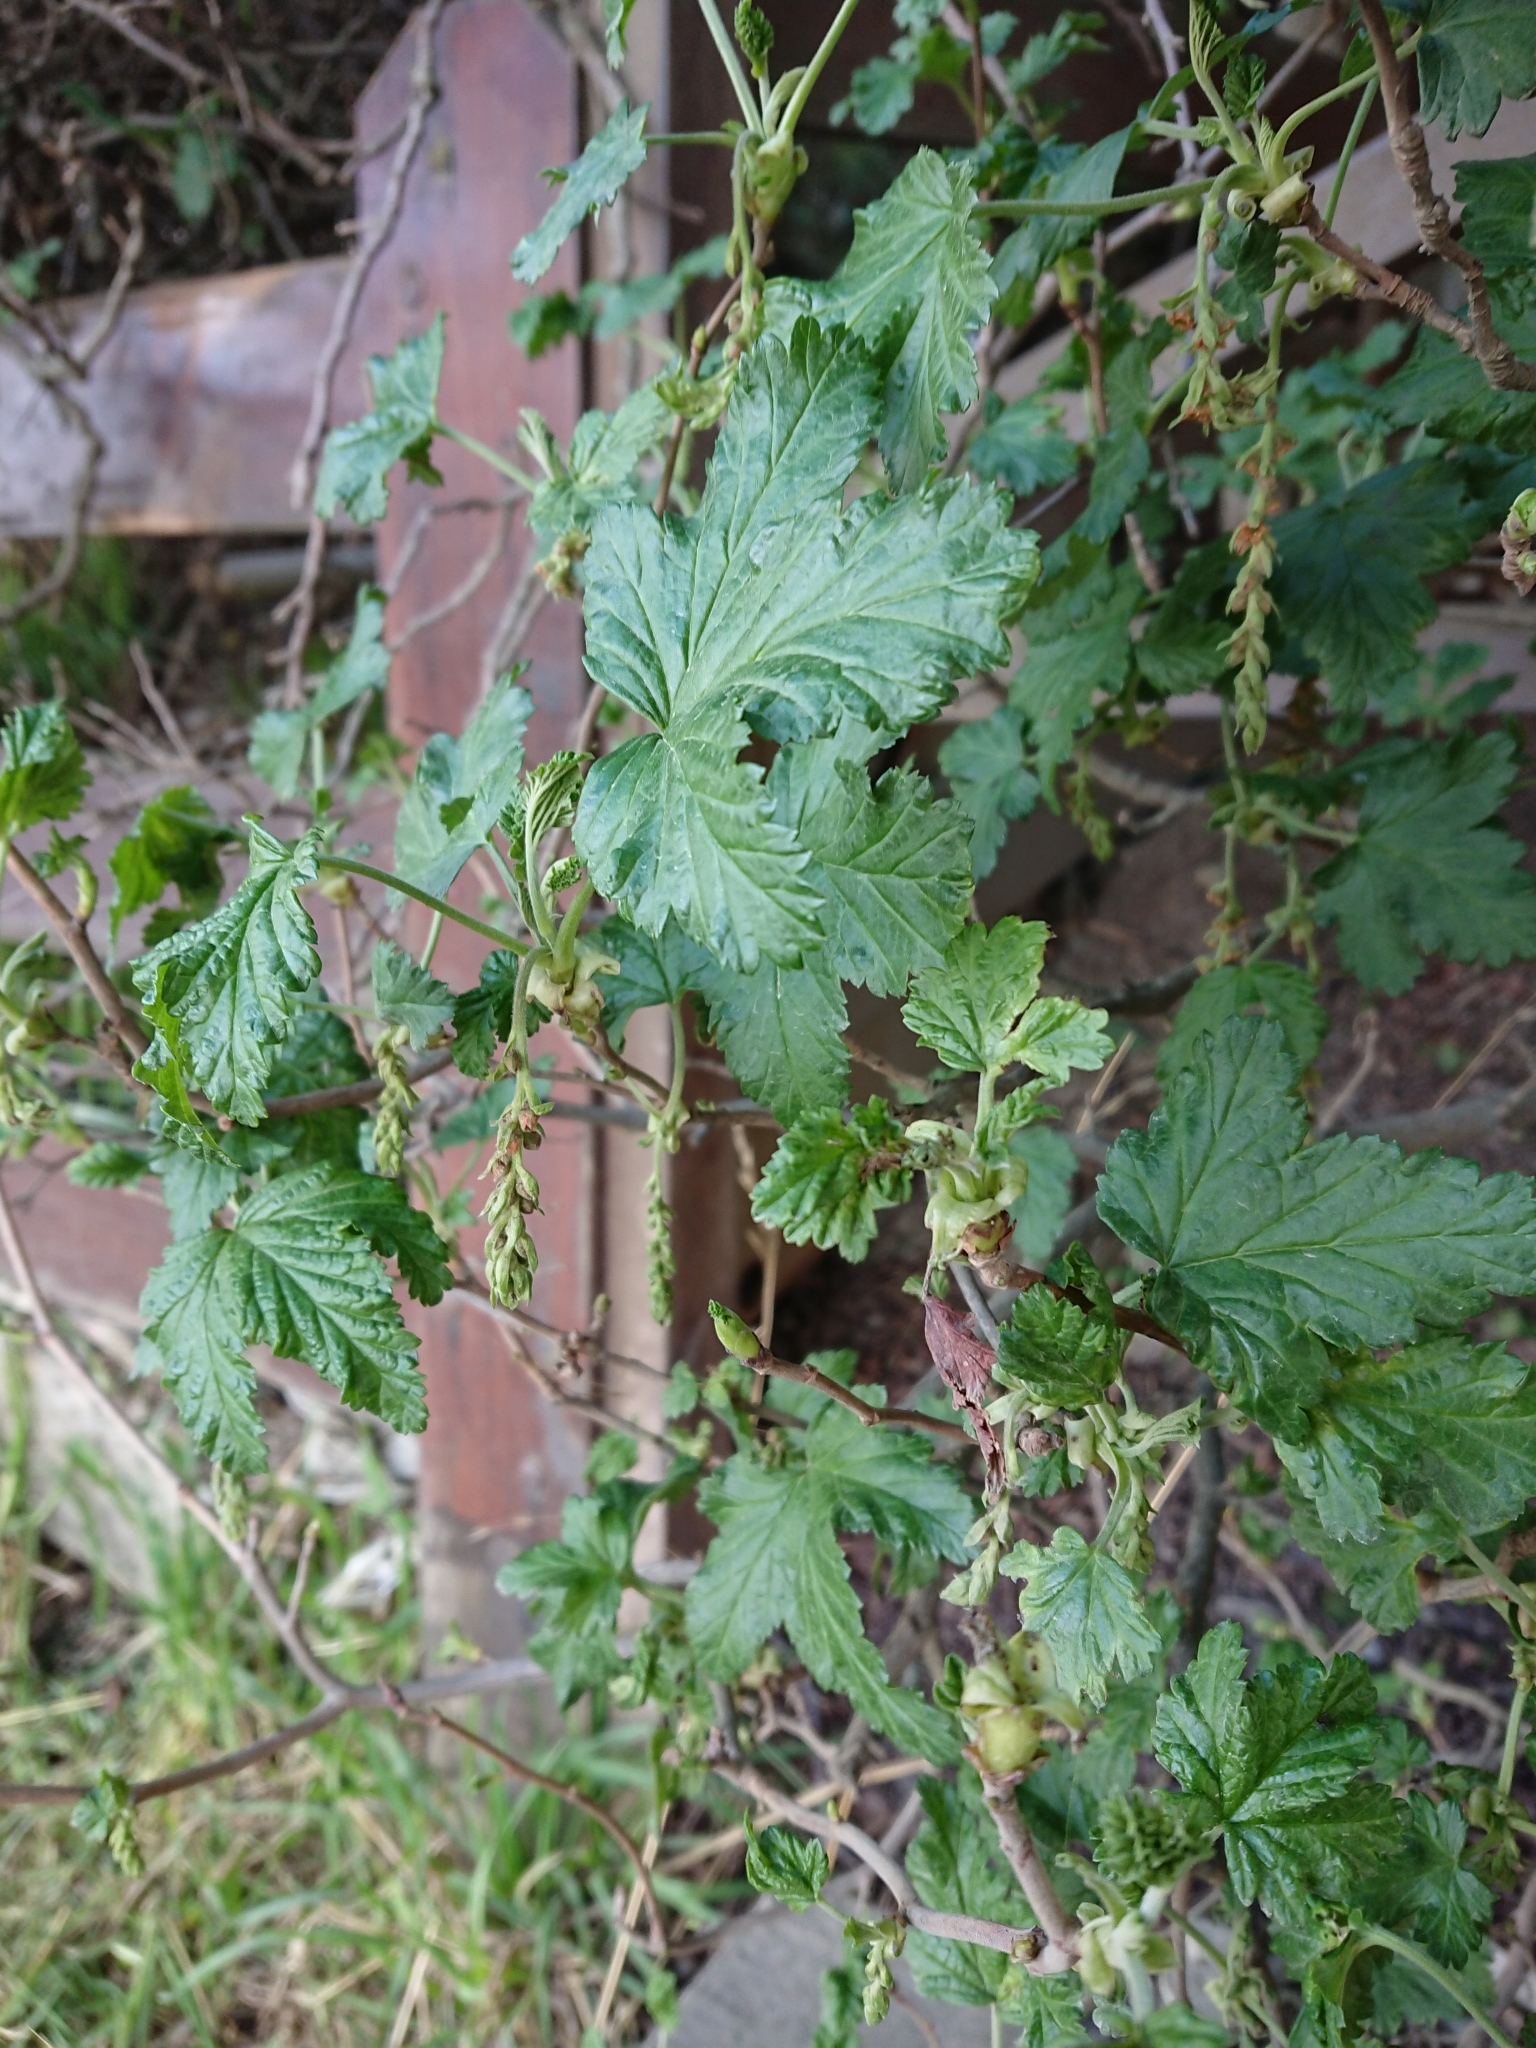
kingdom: Plantae
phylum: Tracheophyta
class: Magnoliopsida
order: Saxifragales
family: Grossulariaceae
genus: Ribes
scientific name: Ribes magellanicum
